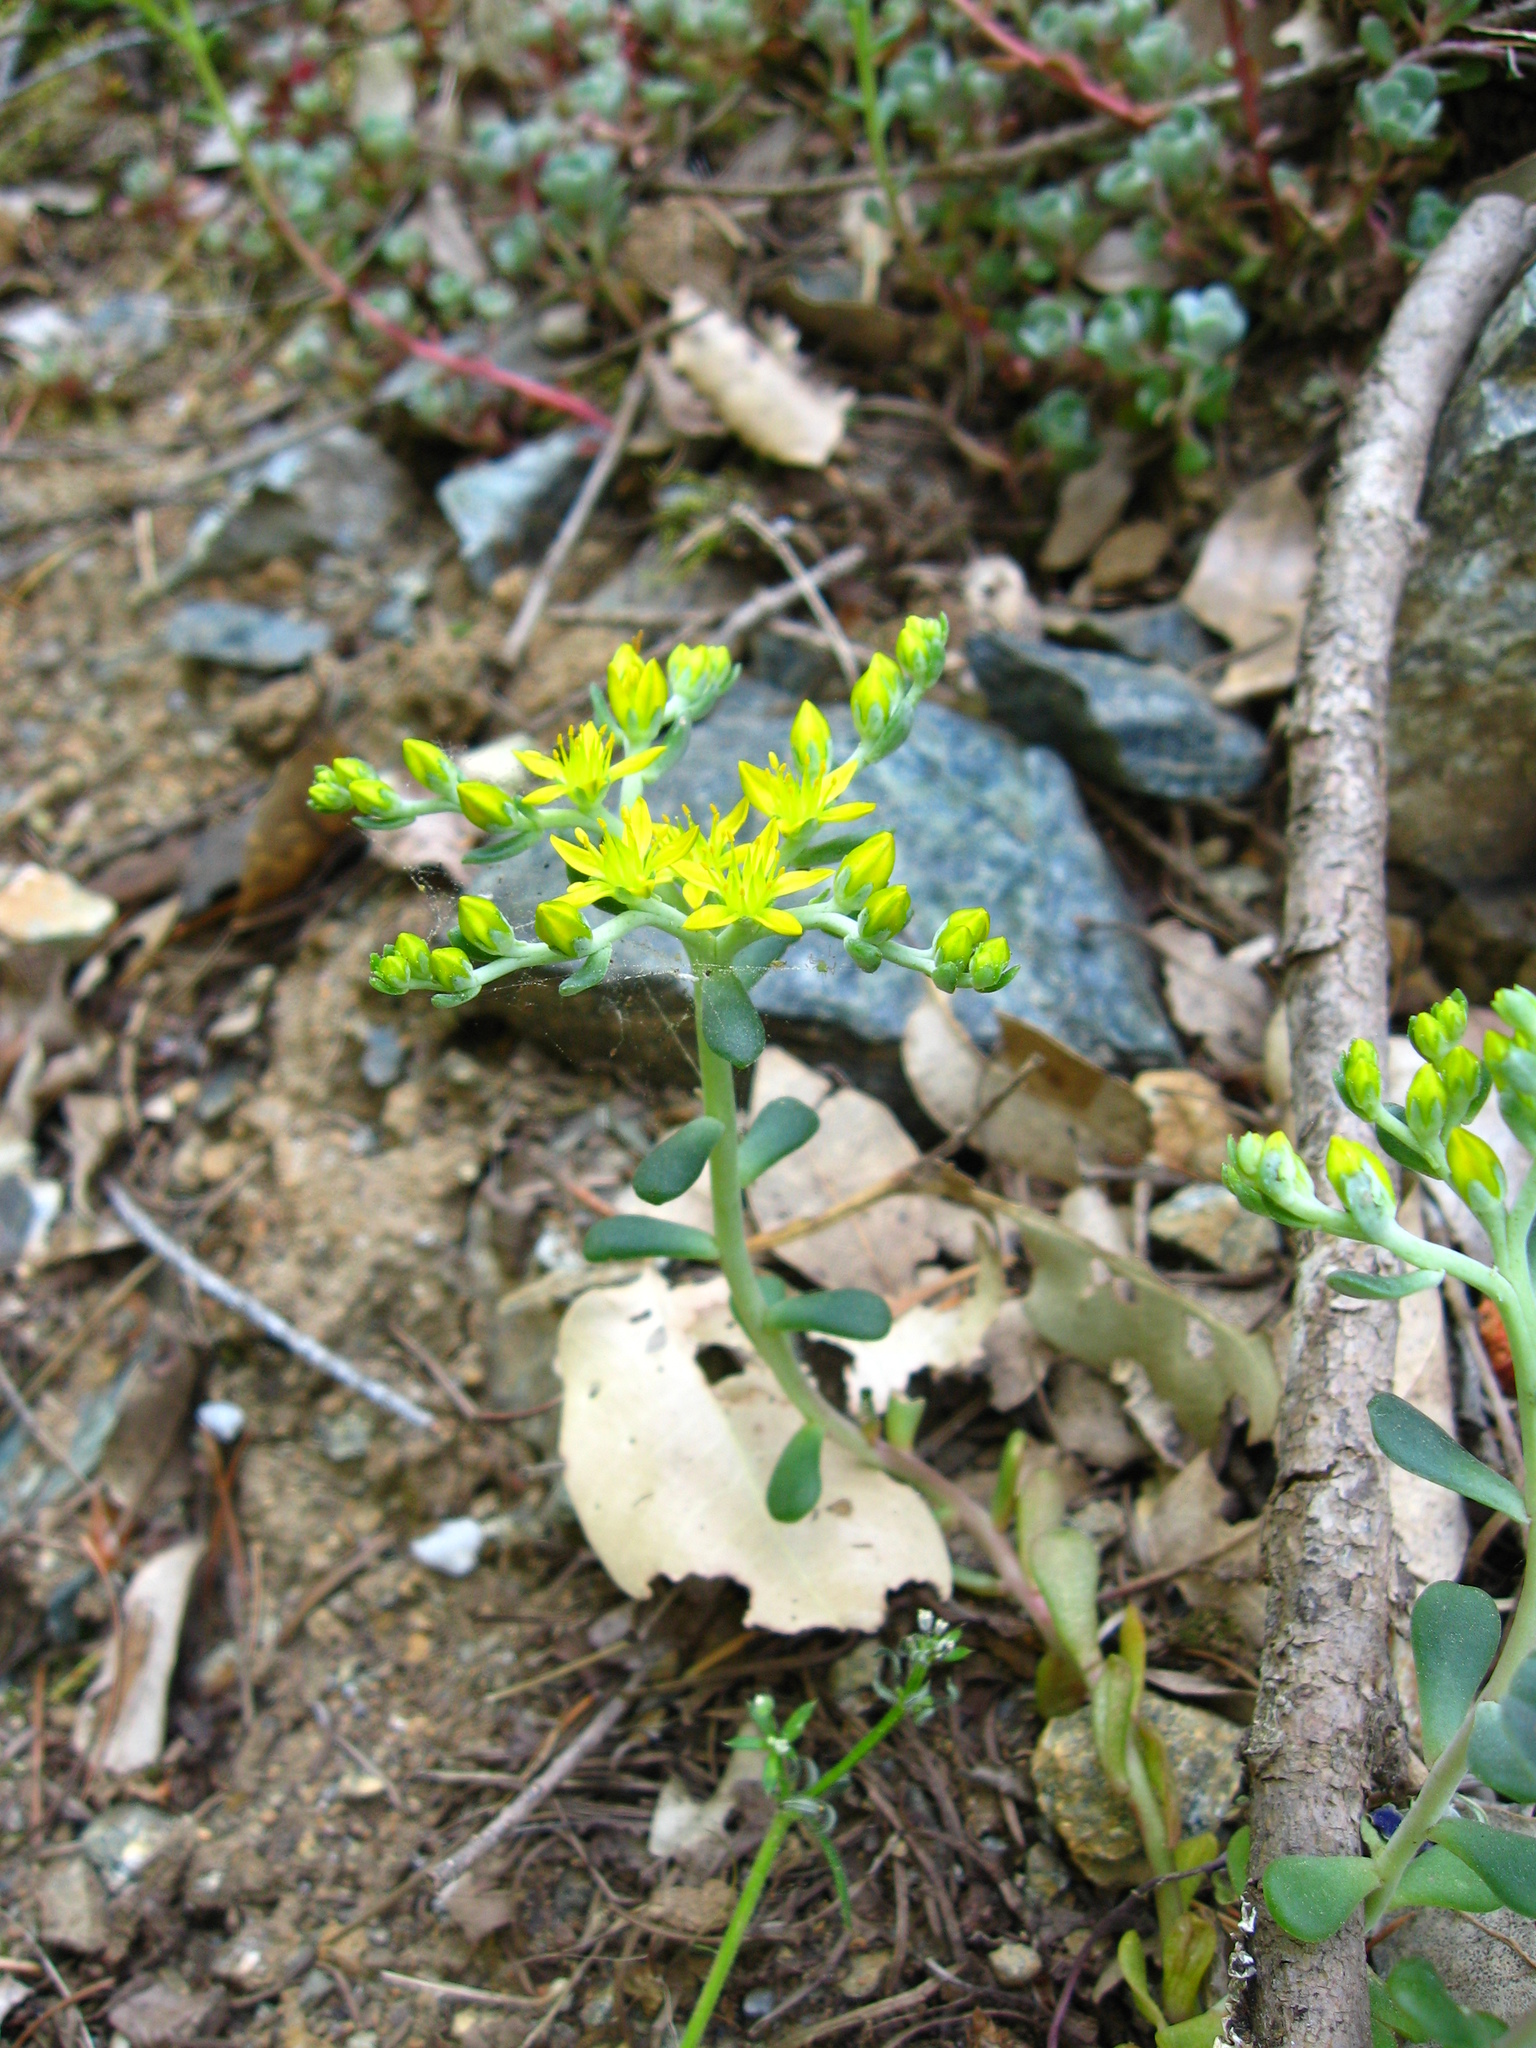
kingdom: Plantae
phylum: Tracheophyta
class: Magnoliopsida
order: Saxifragales
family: Crassulaceae
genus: Sedum
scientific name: Sedum spathulifolium
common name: Colorado stonecrop
